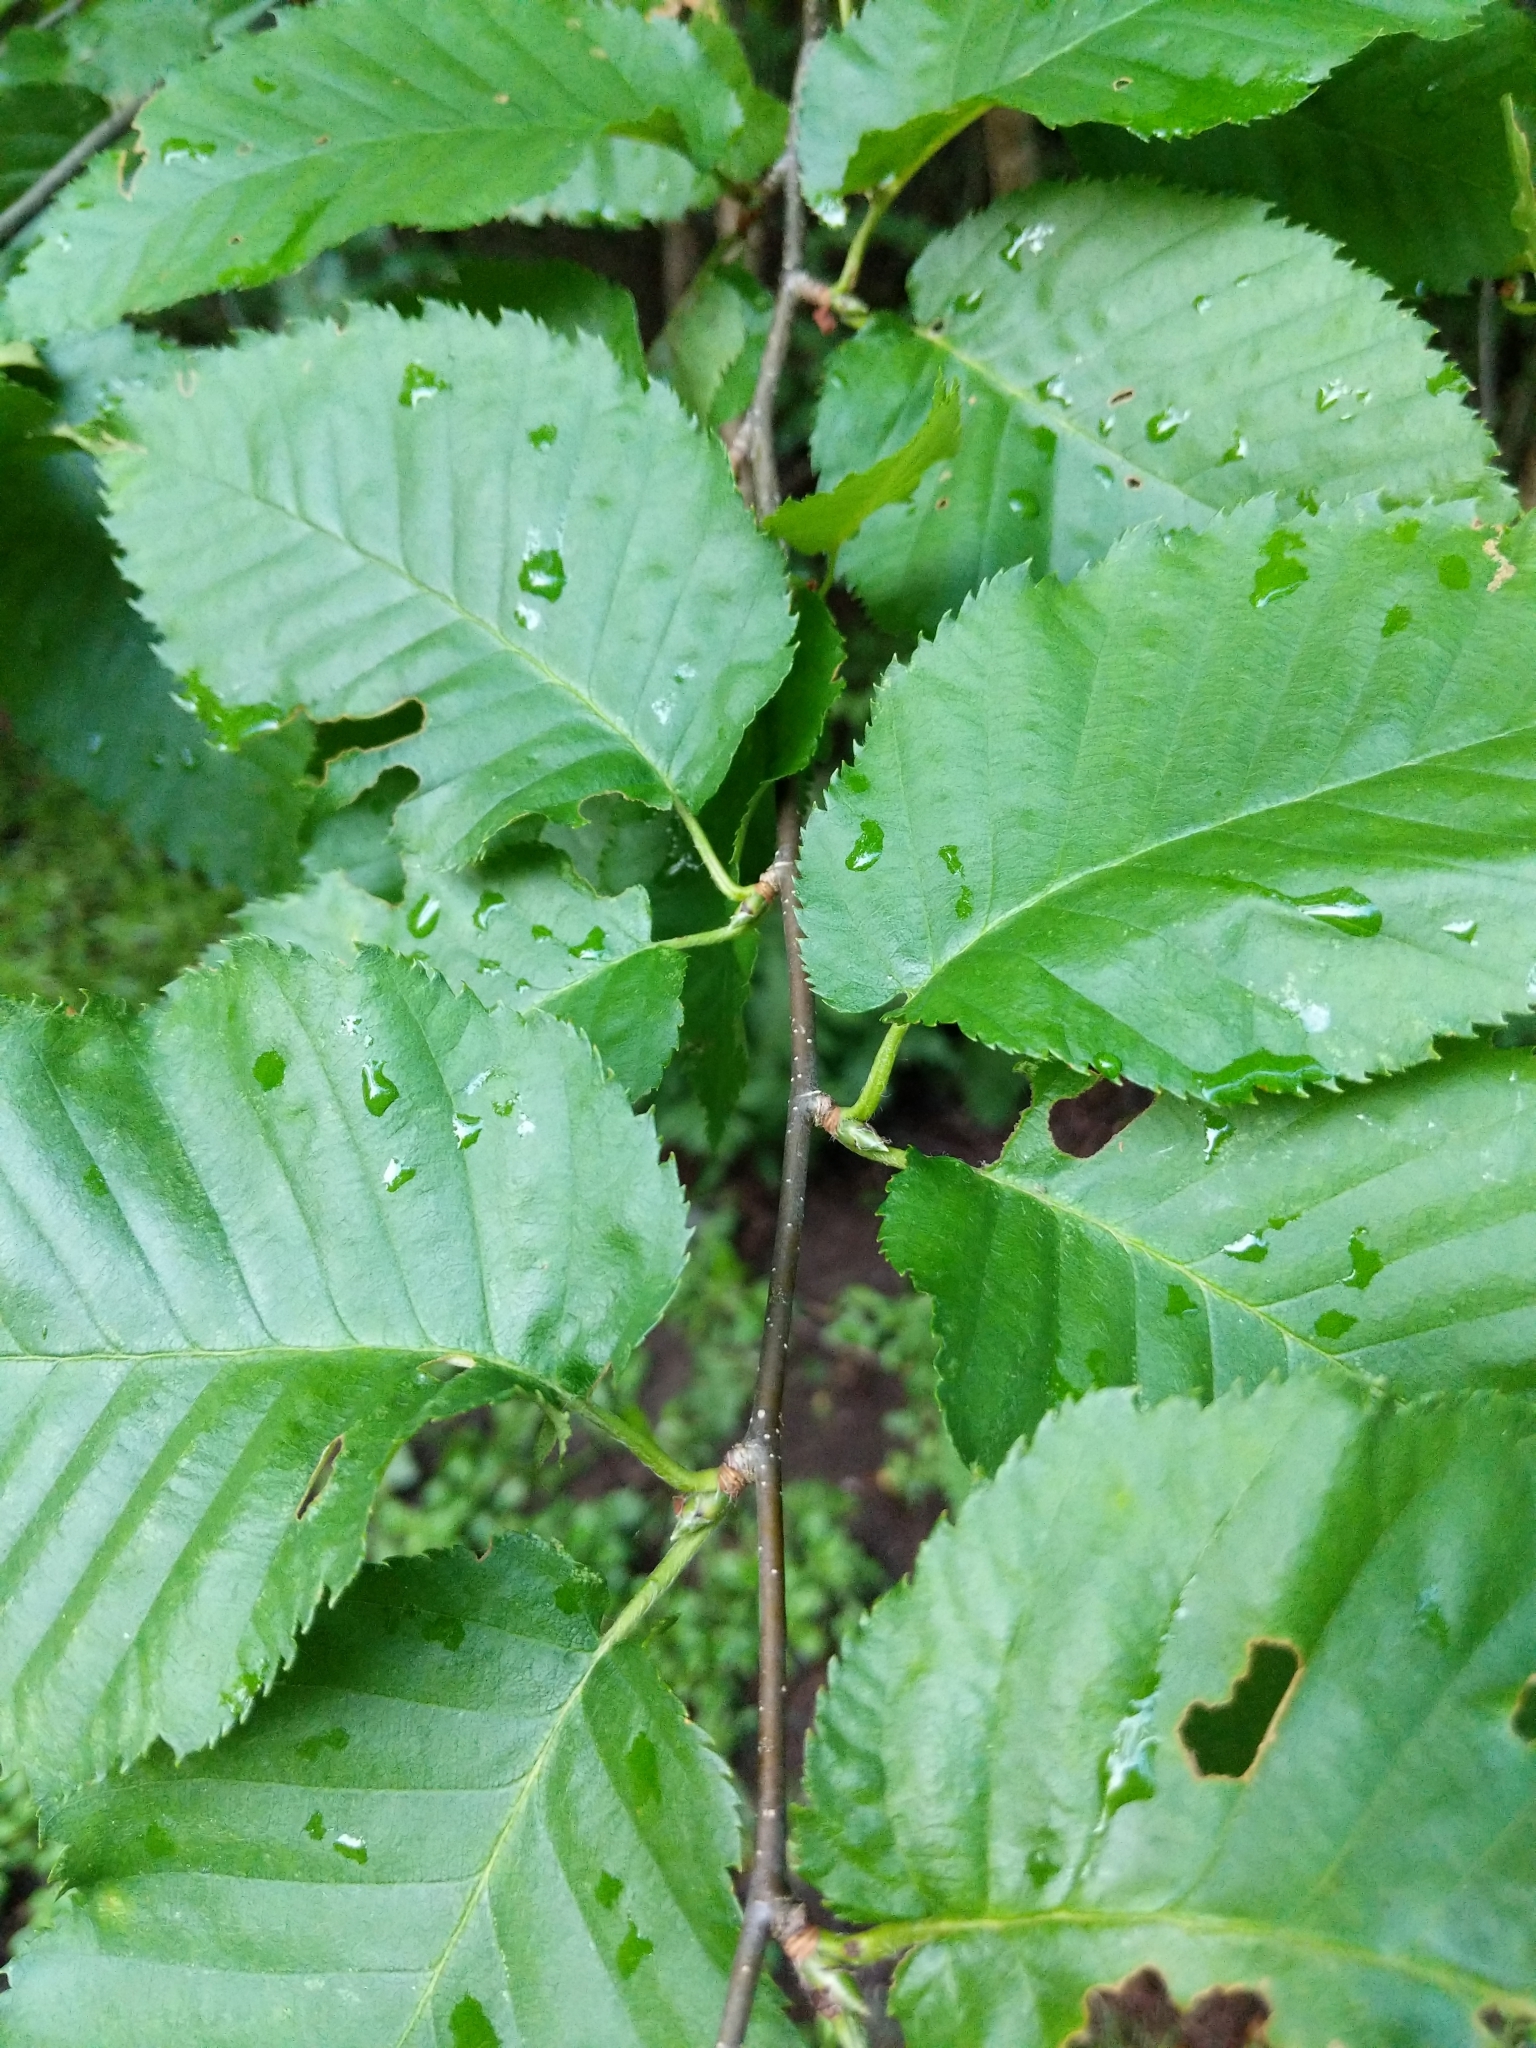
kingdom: Plantae
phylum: Tracheophyta
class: Magnoliopsida
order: Fagales
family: Betulaceae
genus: Betula
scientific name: Betula alleghaniensis
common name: Yellow birch
